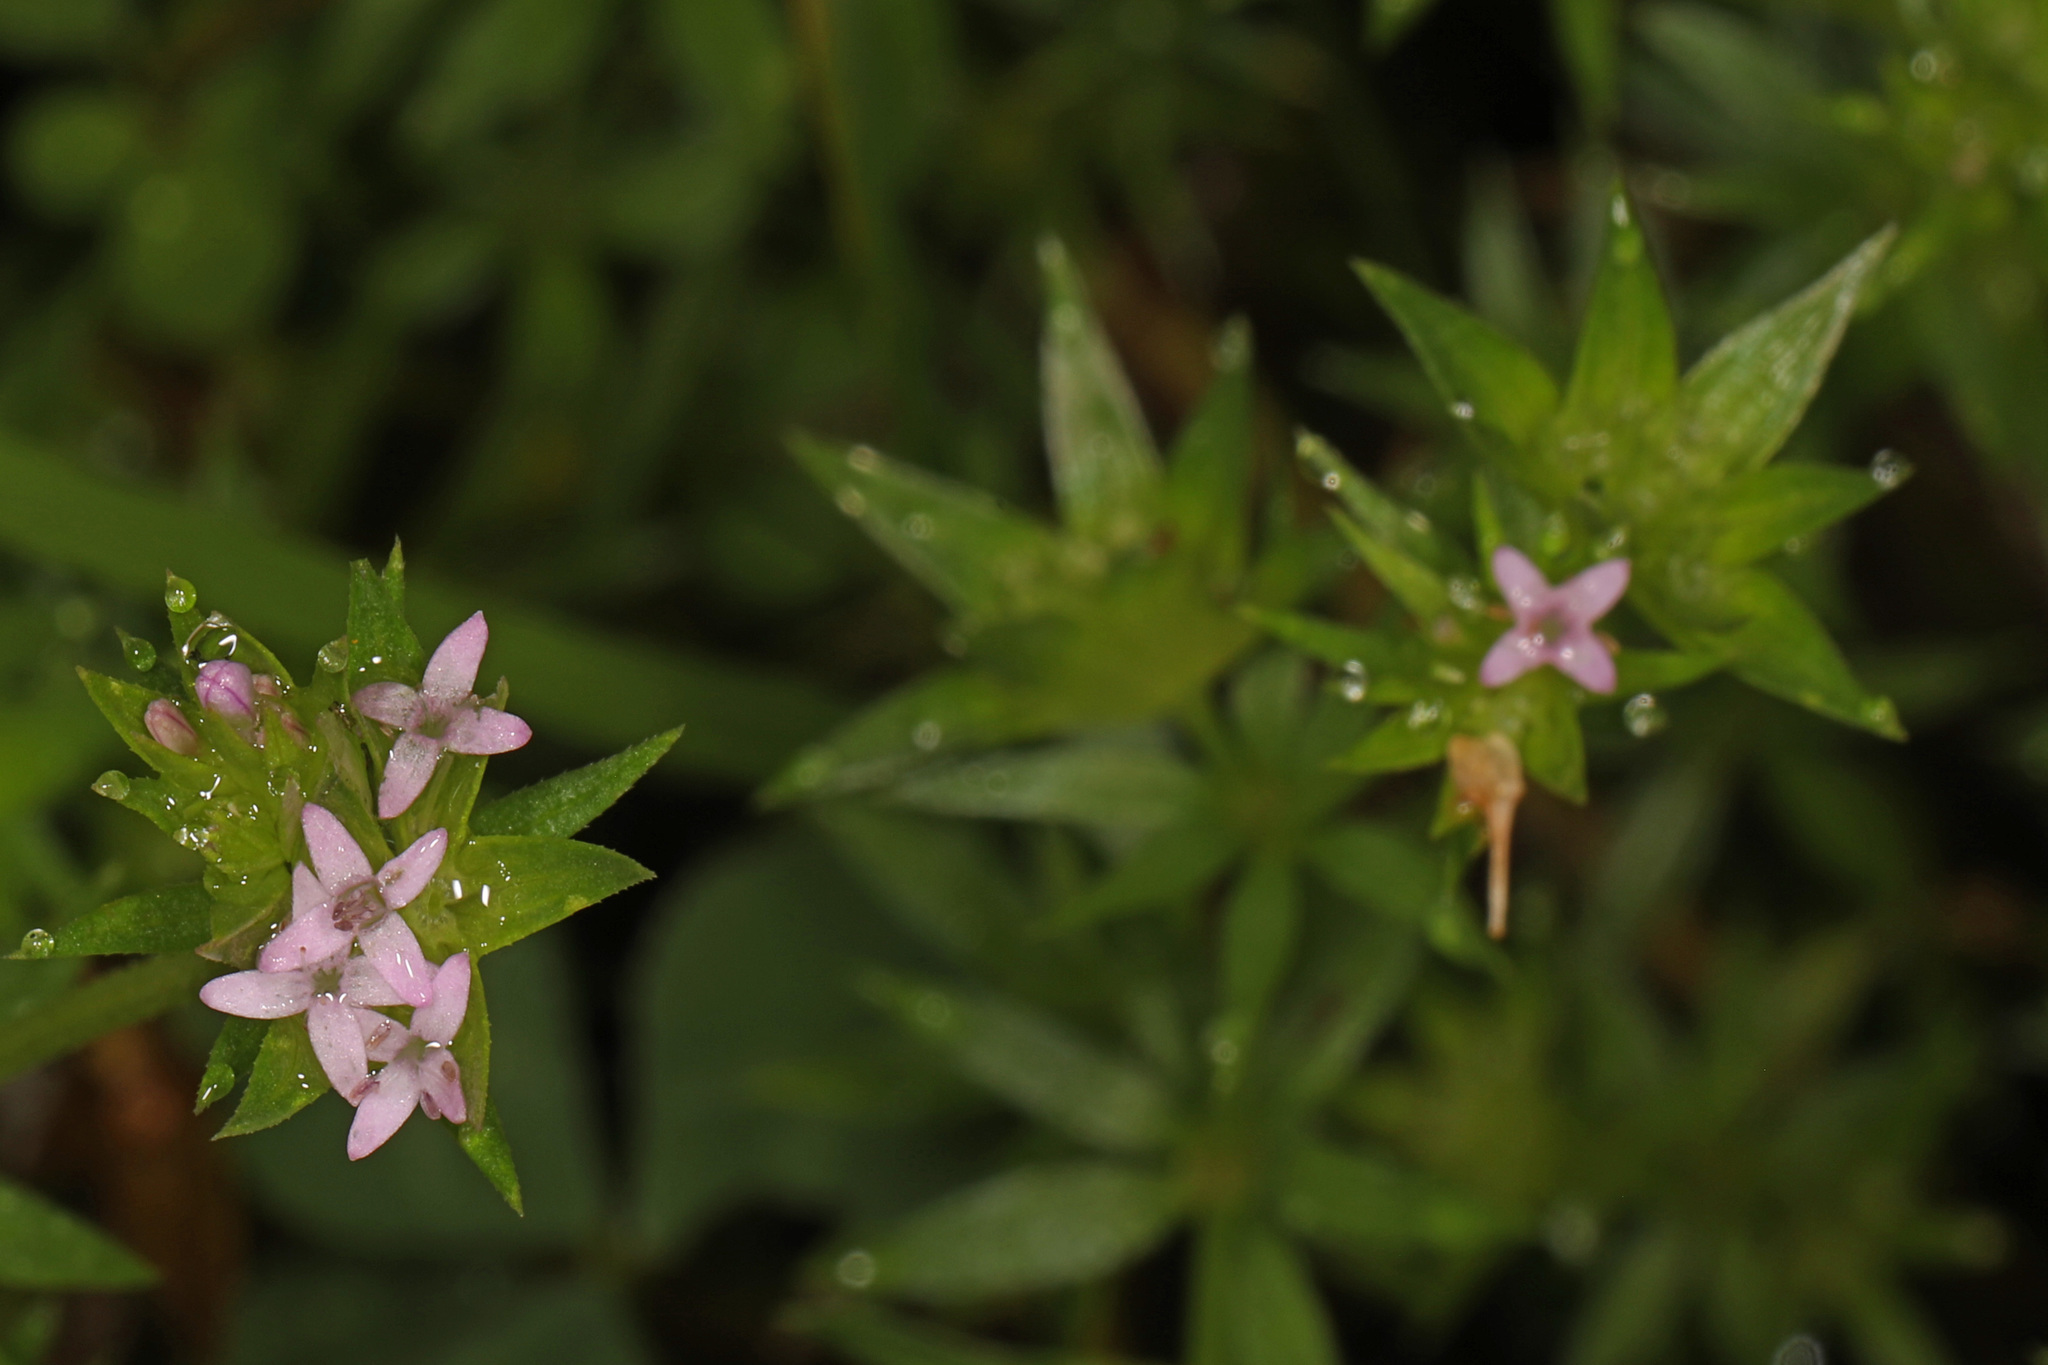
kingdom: Plantae
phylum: Tracheophyta
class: Magnoliopsida
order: Gentianales
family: Rubiaceae
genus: Sherardia
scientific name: Sherardia arvensis
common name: Field madder
